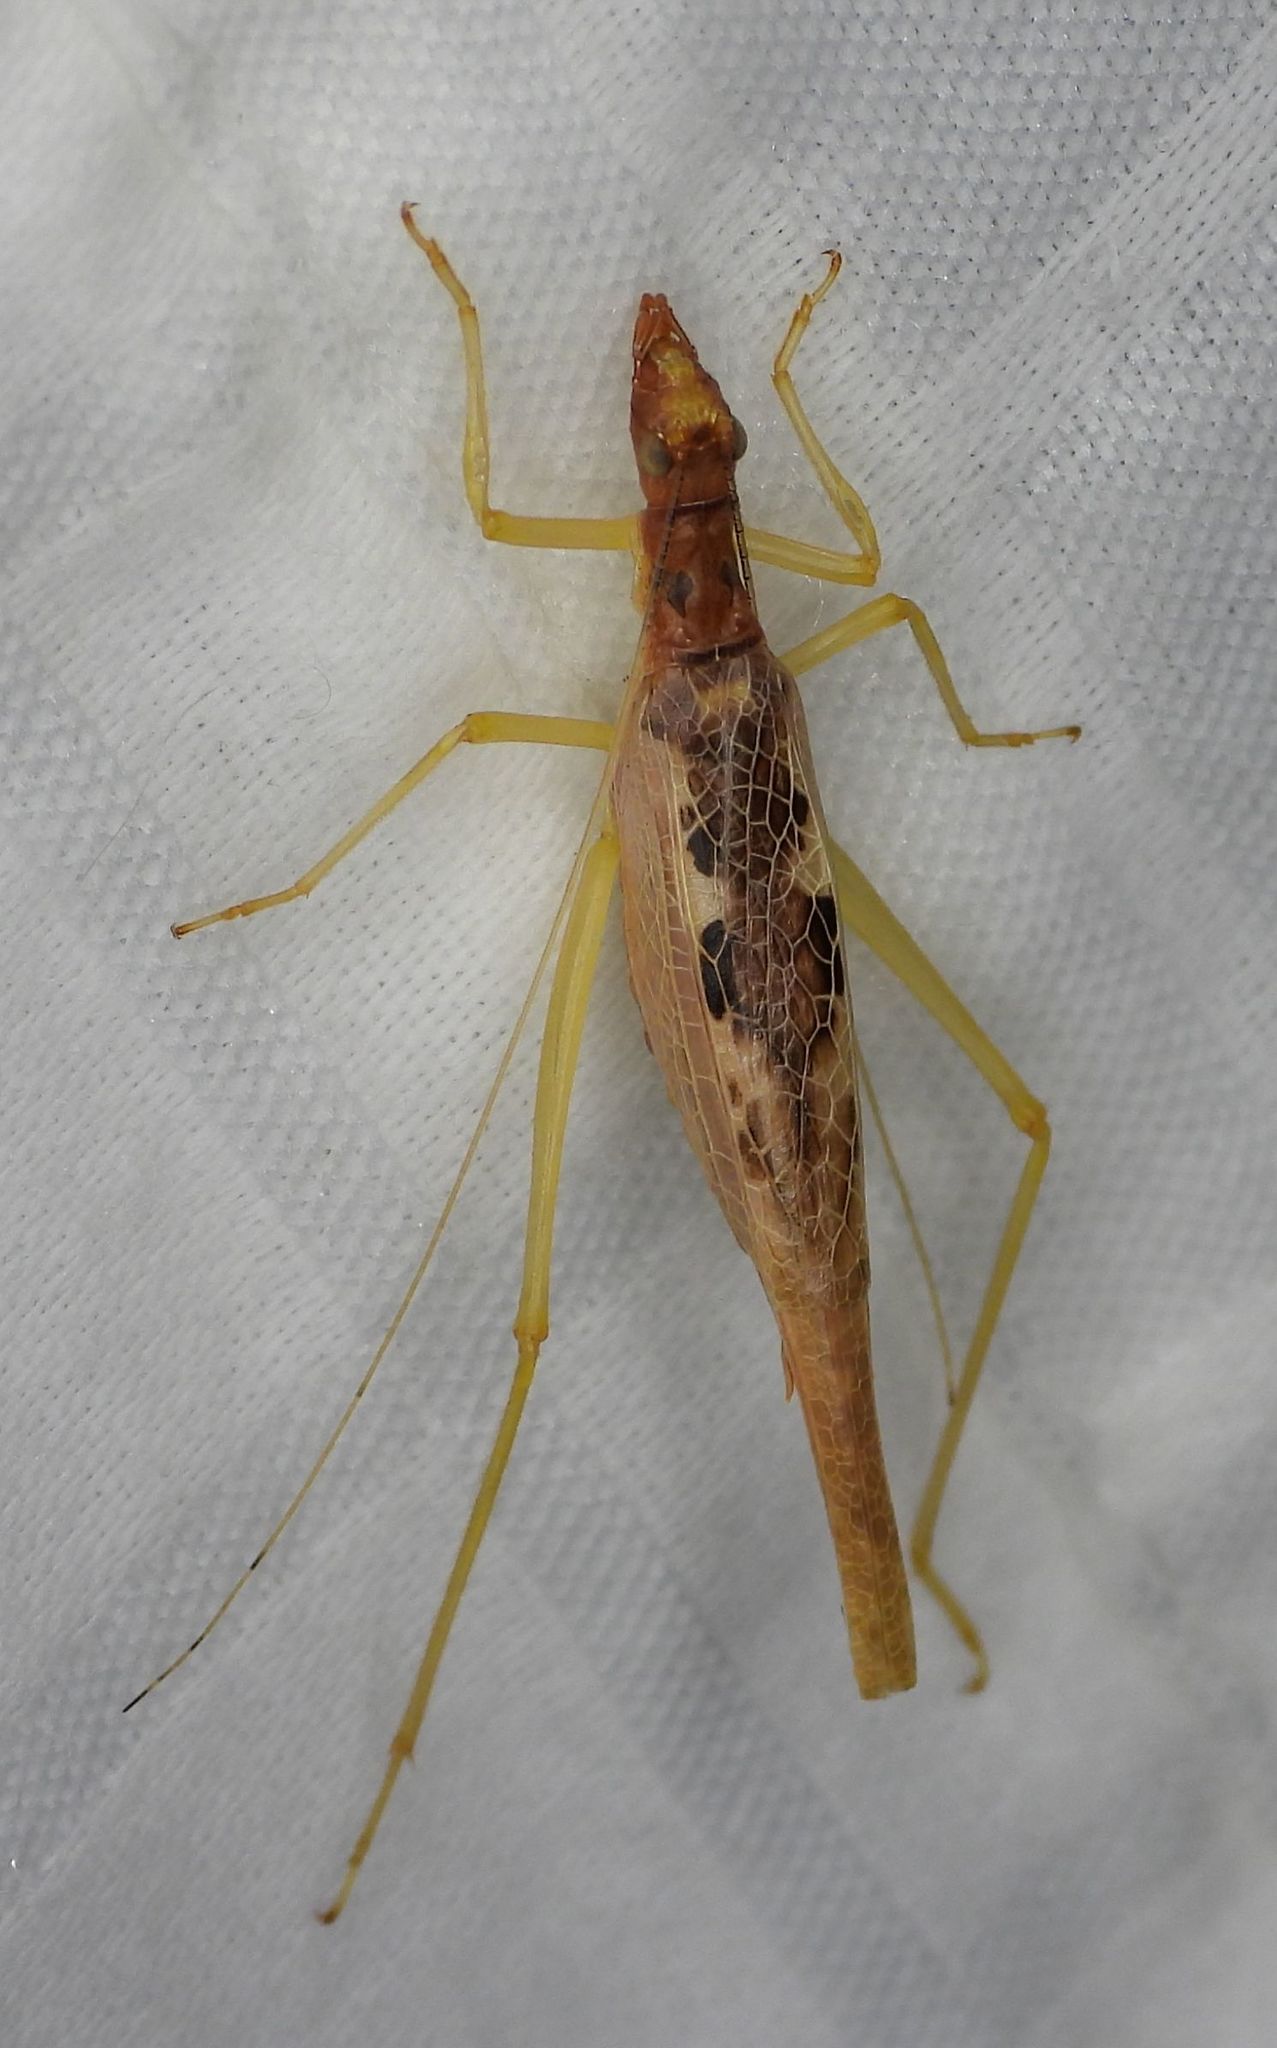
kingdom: Animalia
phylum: Arthropoda
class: Insecta
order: Orthoptera
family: Gryllidae
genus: Neoxabea
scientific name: Neoxabea bipunctata
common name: Two-spotted tree cricket
